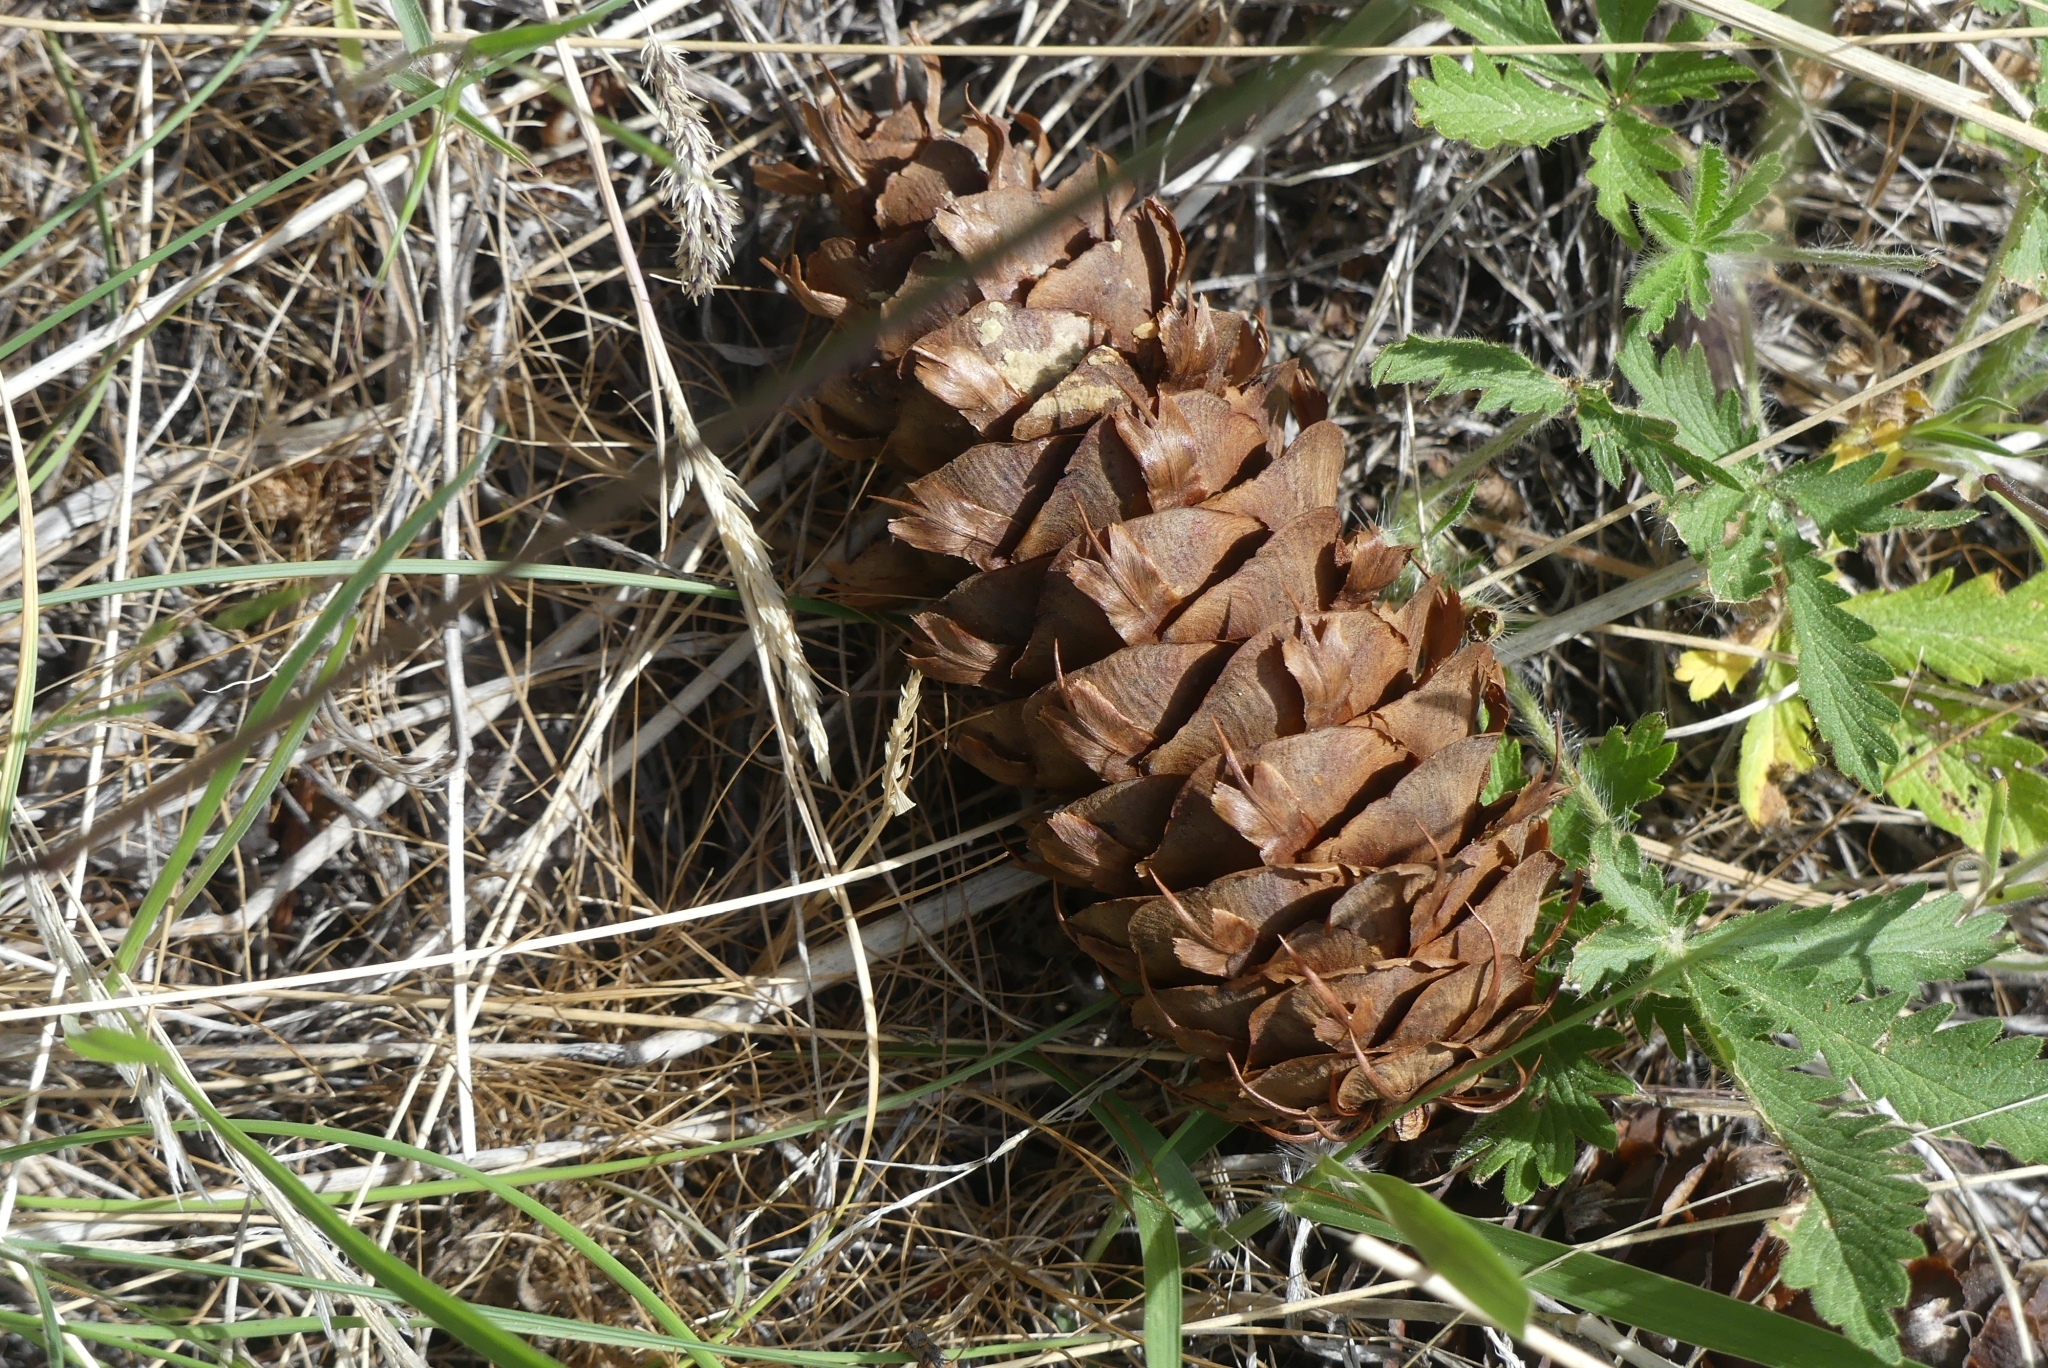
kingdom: Plantae
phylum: Tracheophyta
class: Pinopsida
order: Pinales
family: Pinaceae
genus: Pseudotsuga
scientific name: Pseudotsuga menziesii
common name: Douglas fir
